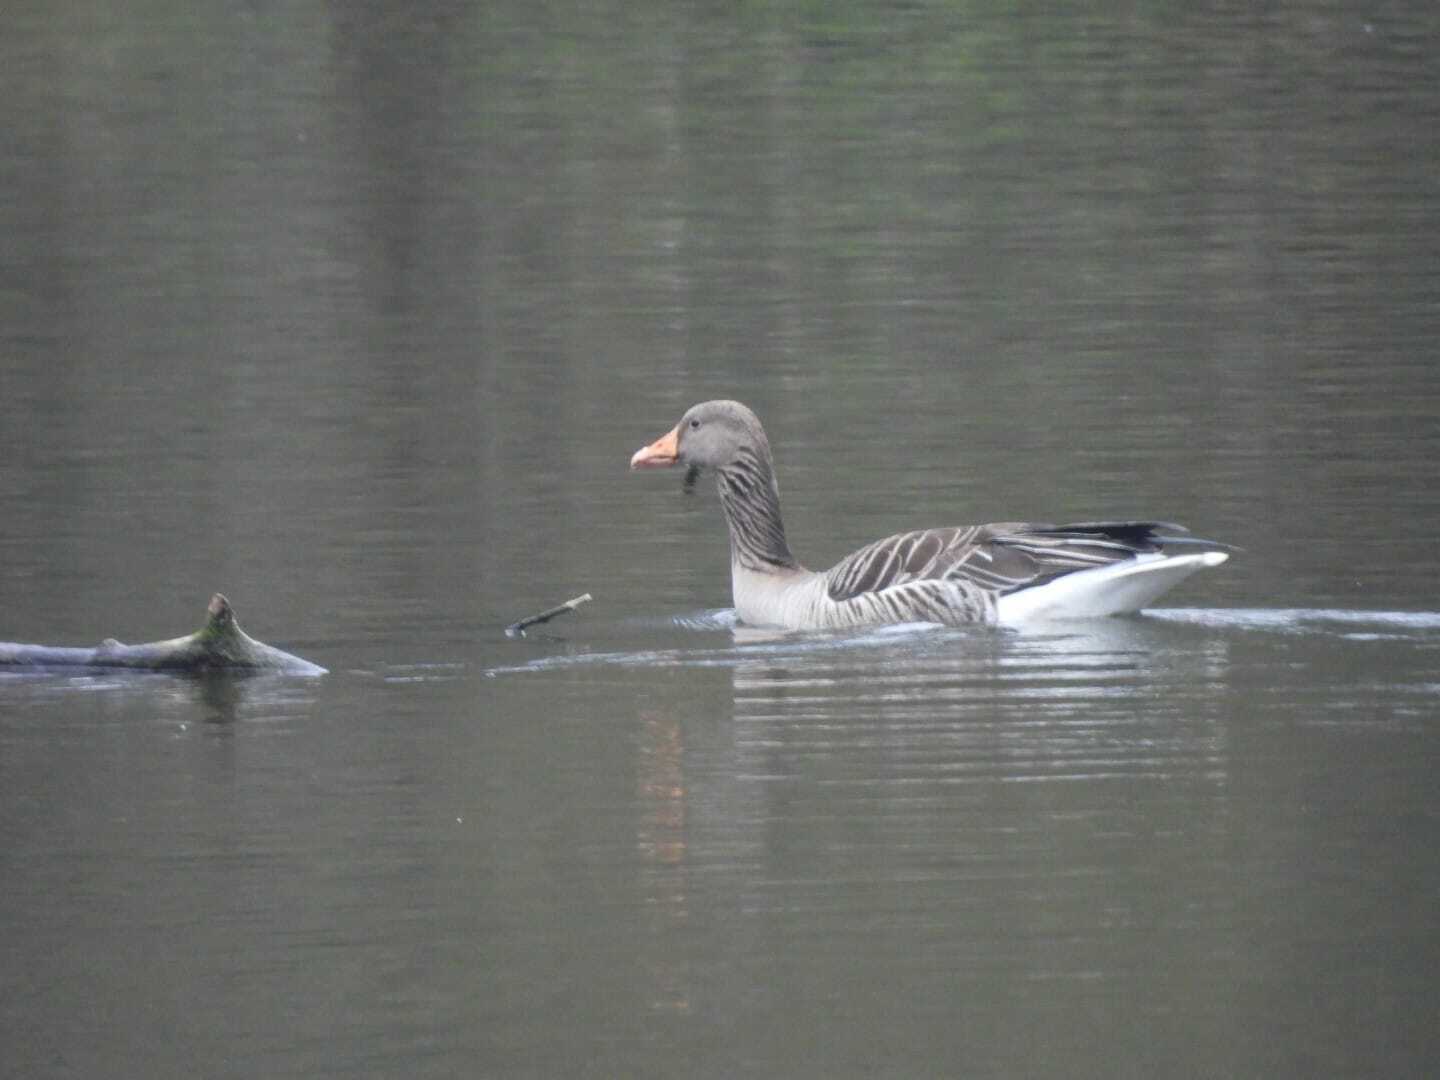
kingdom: Animalia
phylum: Chordata
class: Aves
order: Anseriformes
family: Anatidae
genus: Anser
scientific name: Anser anser
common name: Greylag goose
